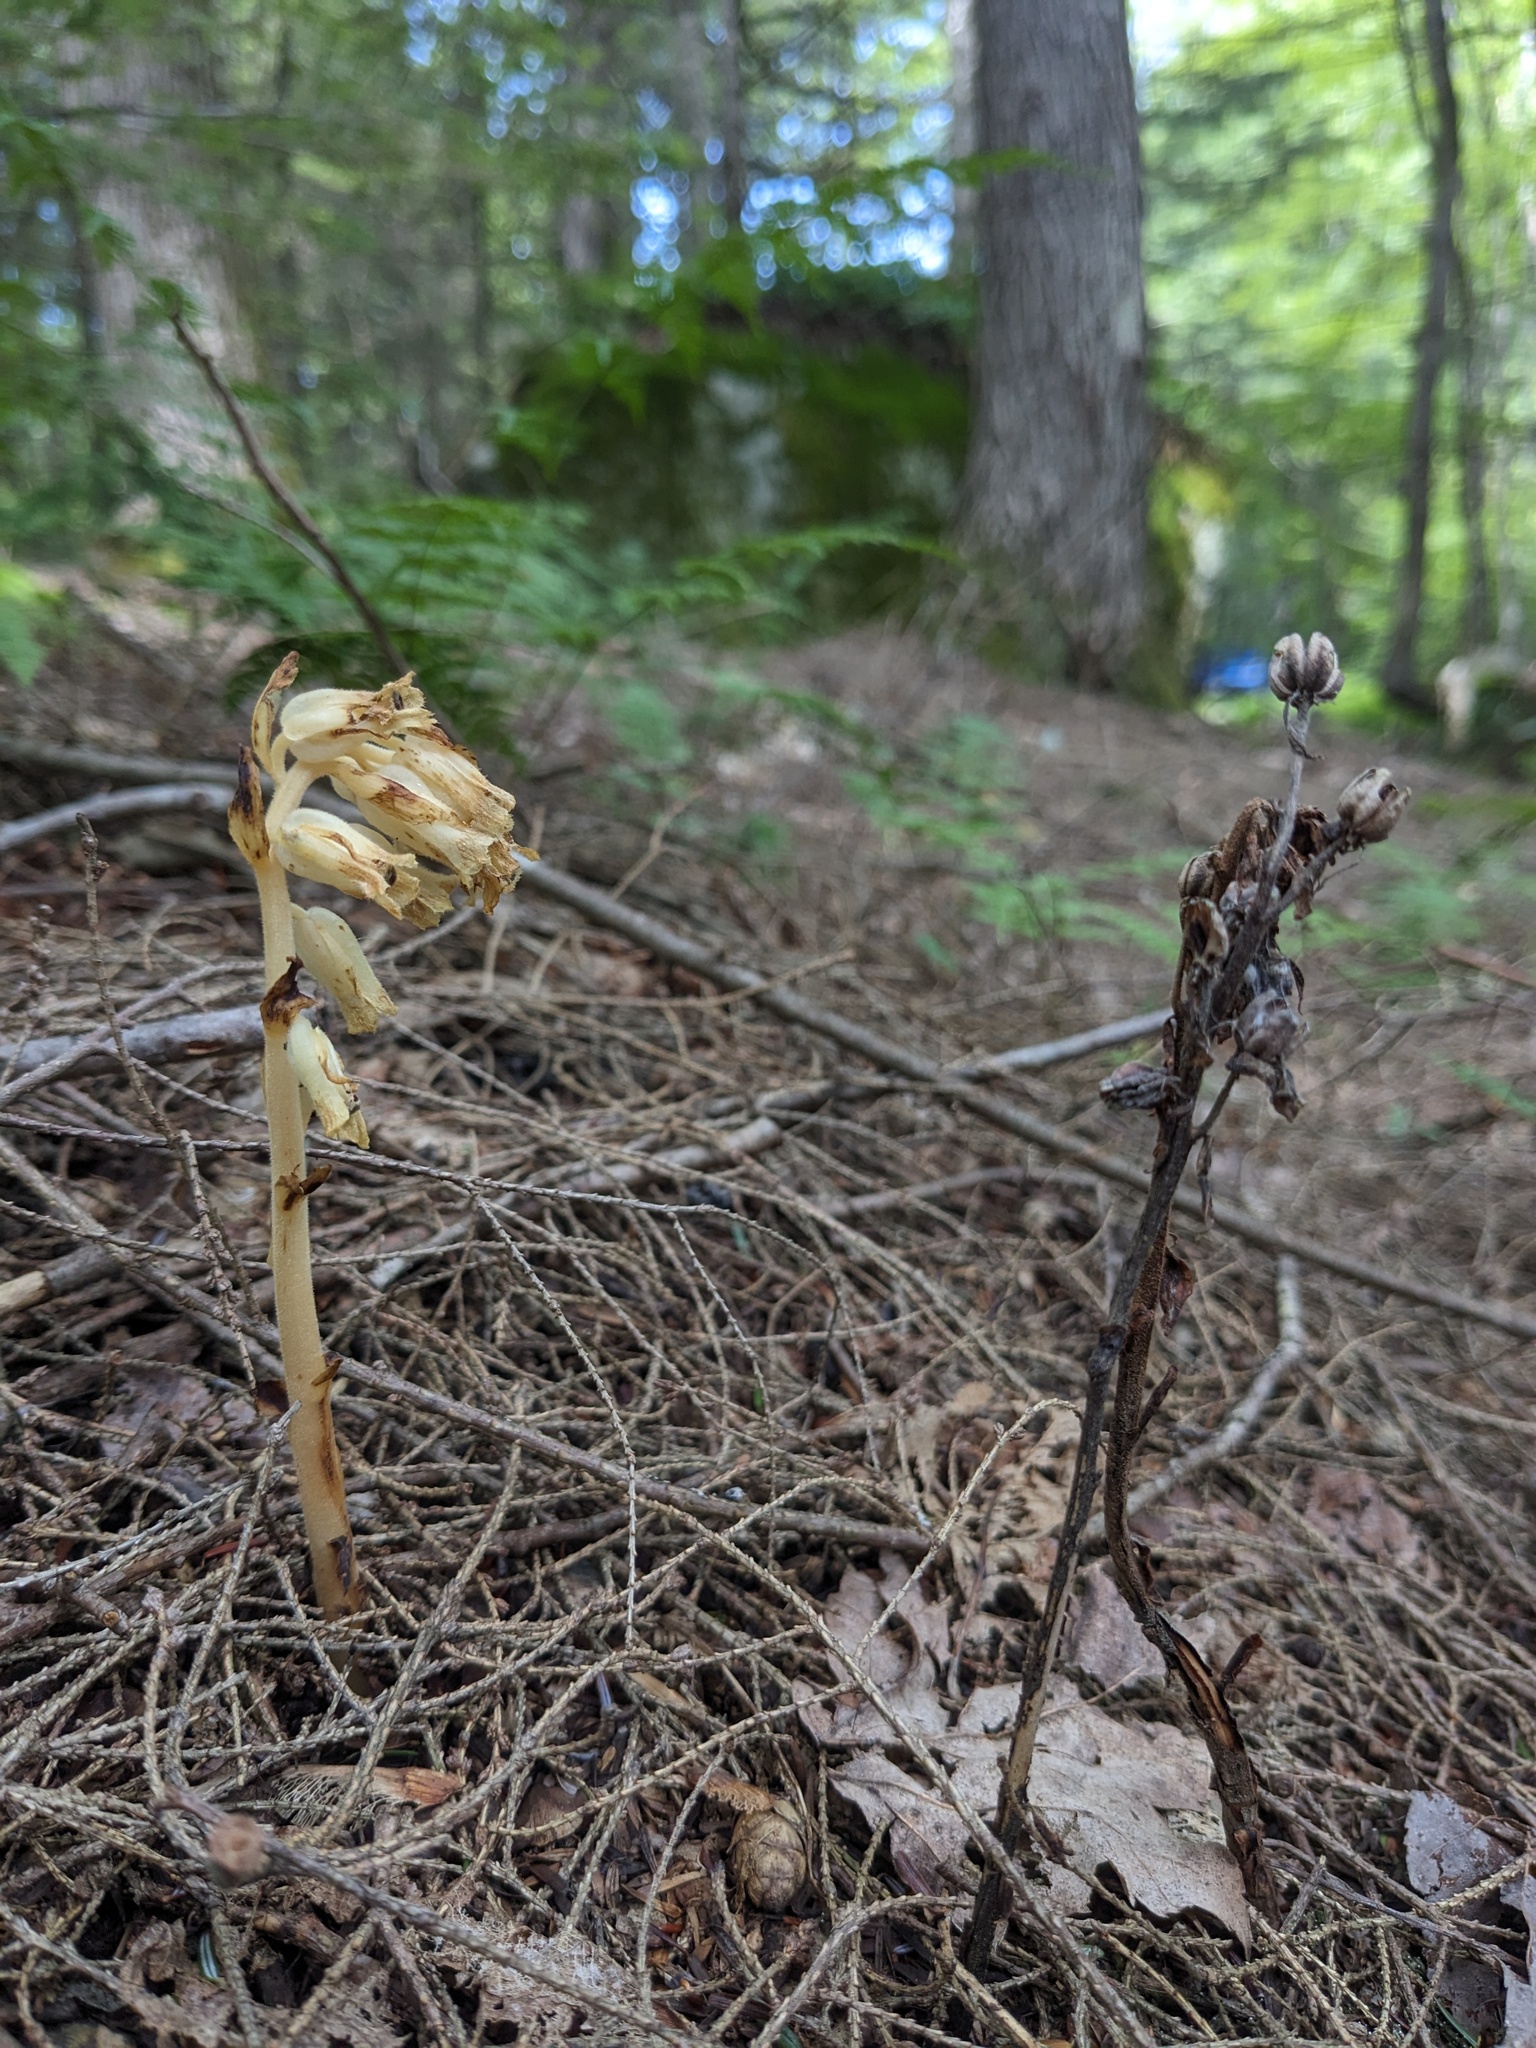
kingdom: Plantae
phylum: Tracheophyta
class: Magnoliopsida
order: Ericales
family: Ericaceae
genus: Hypopitys
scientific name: Hypopitys monotropa
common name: Yellow bird's-nest
